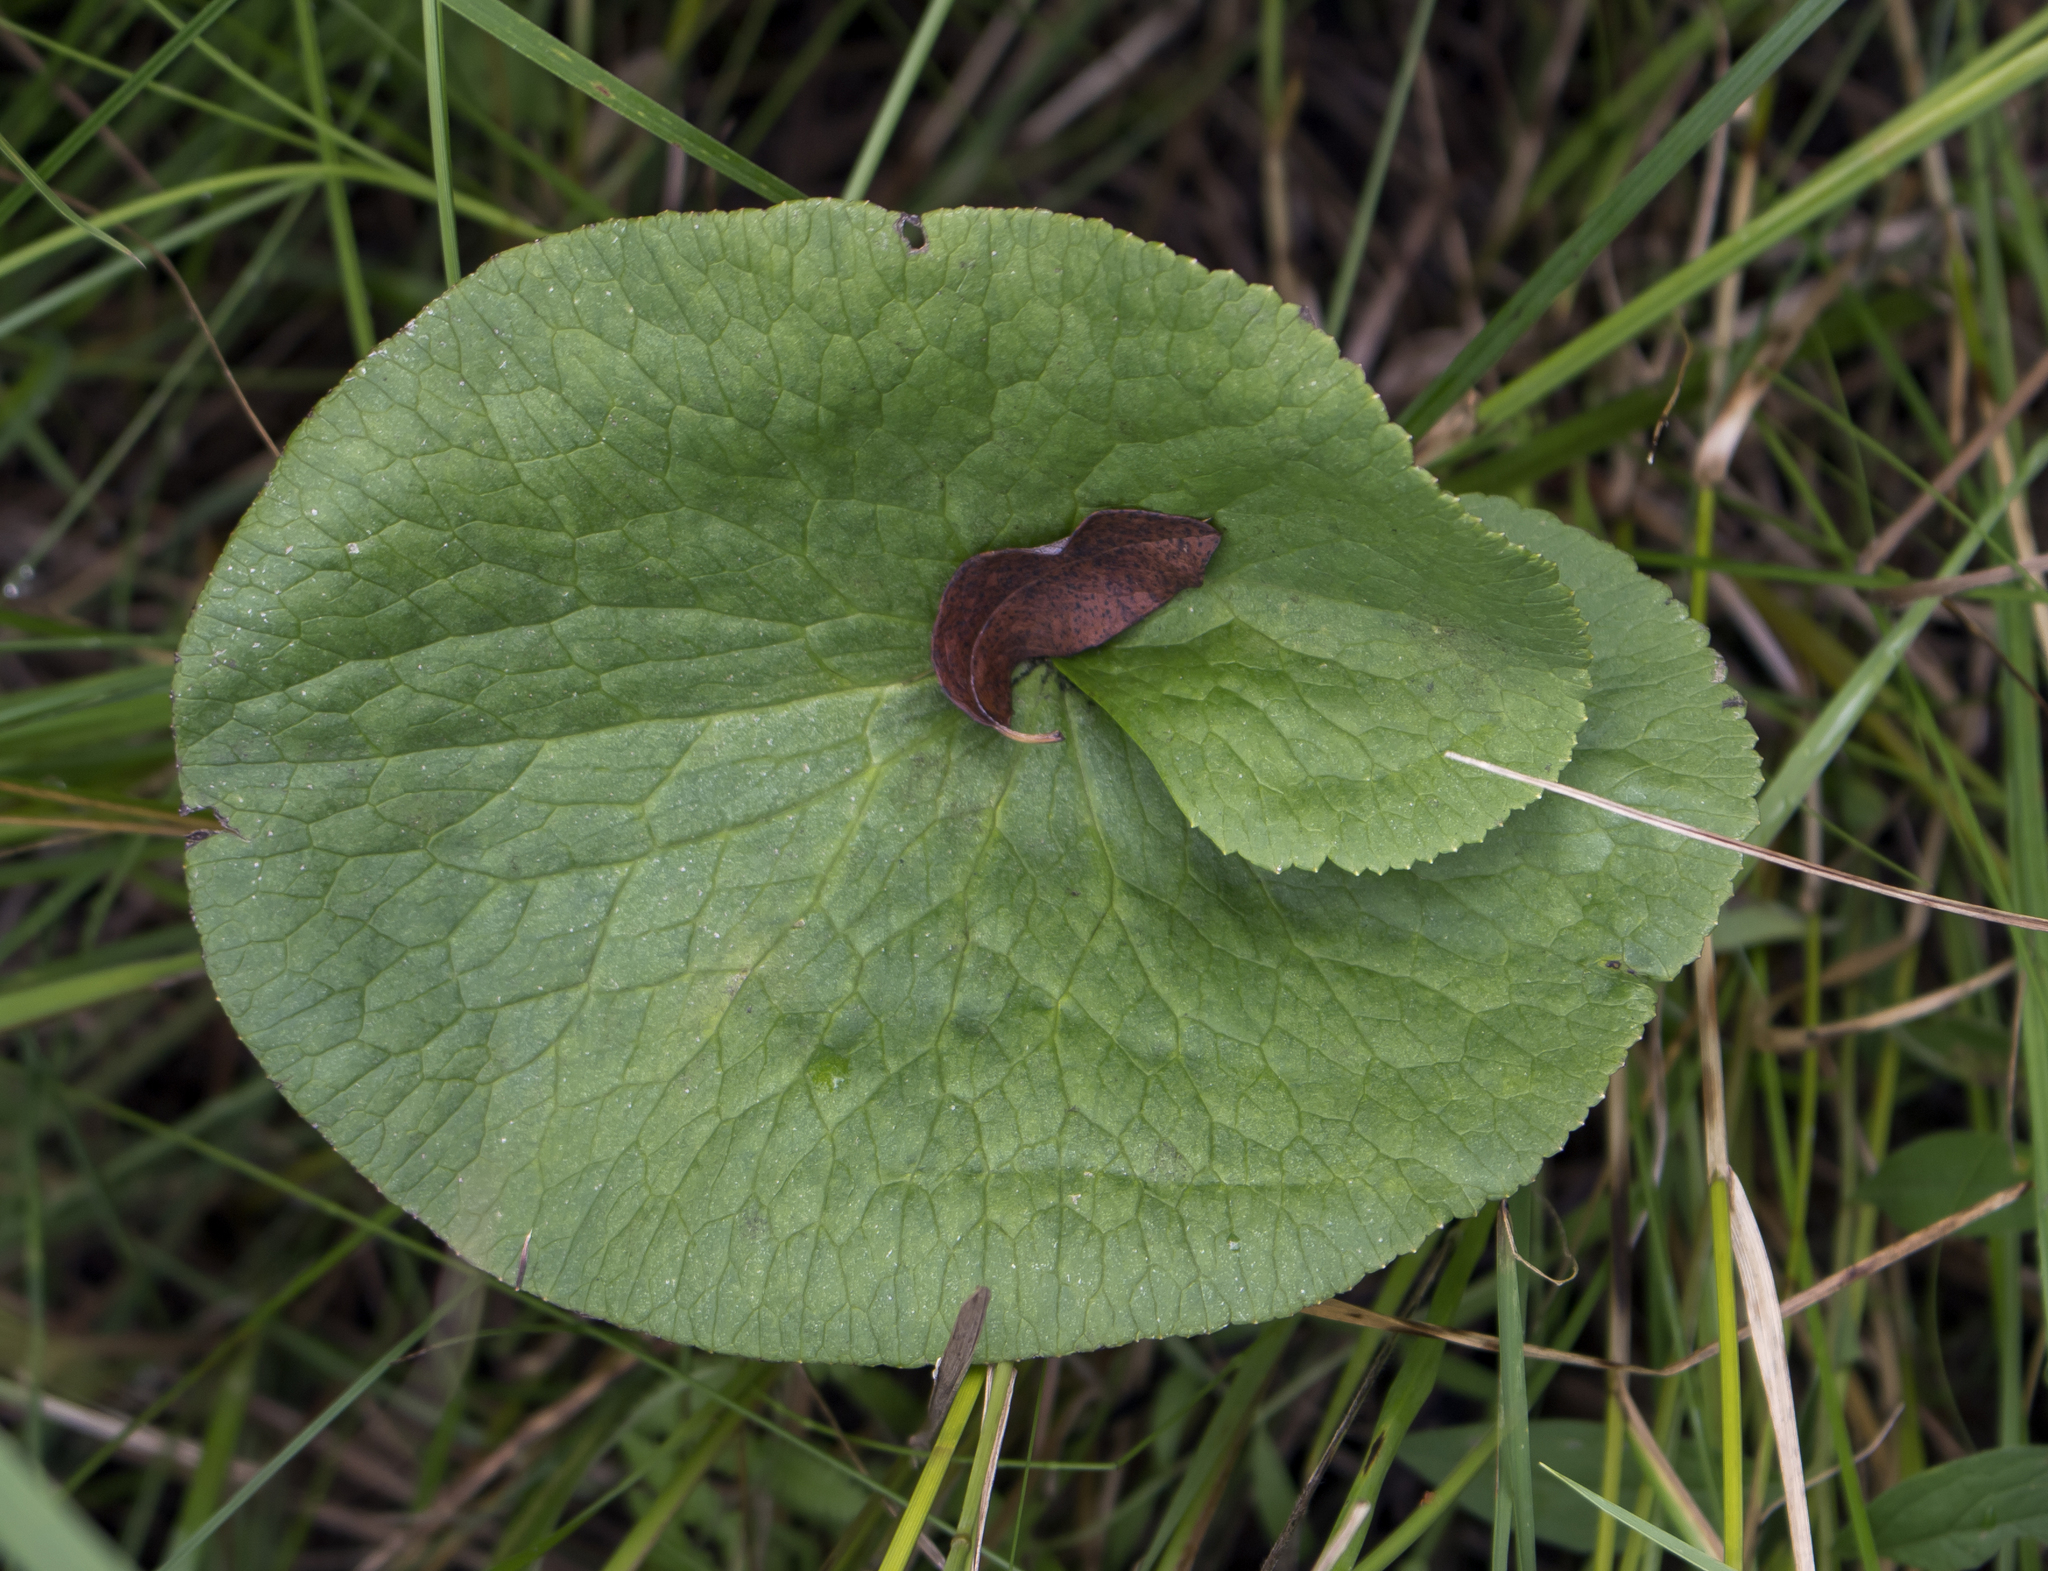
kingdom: Plantae
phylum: Tracheophyta
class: Magnoliopsida
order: Ranunculales
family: Ranunculaceae
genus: Caltha
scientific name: Caltha palustris
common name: Marsh marigold
